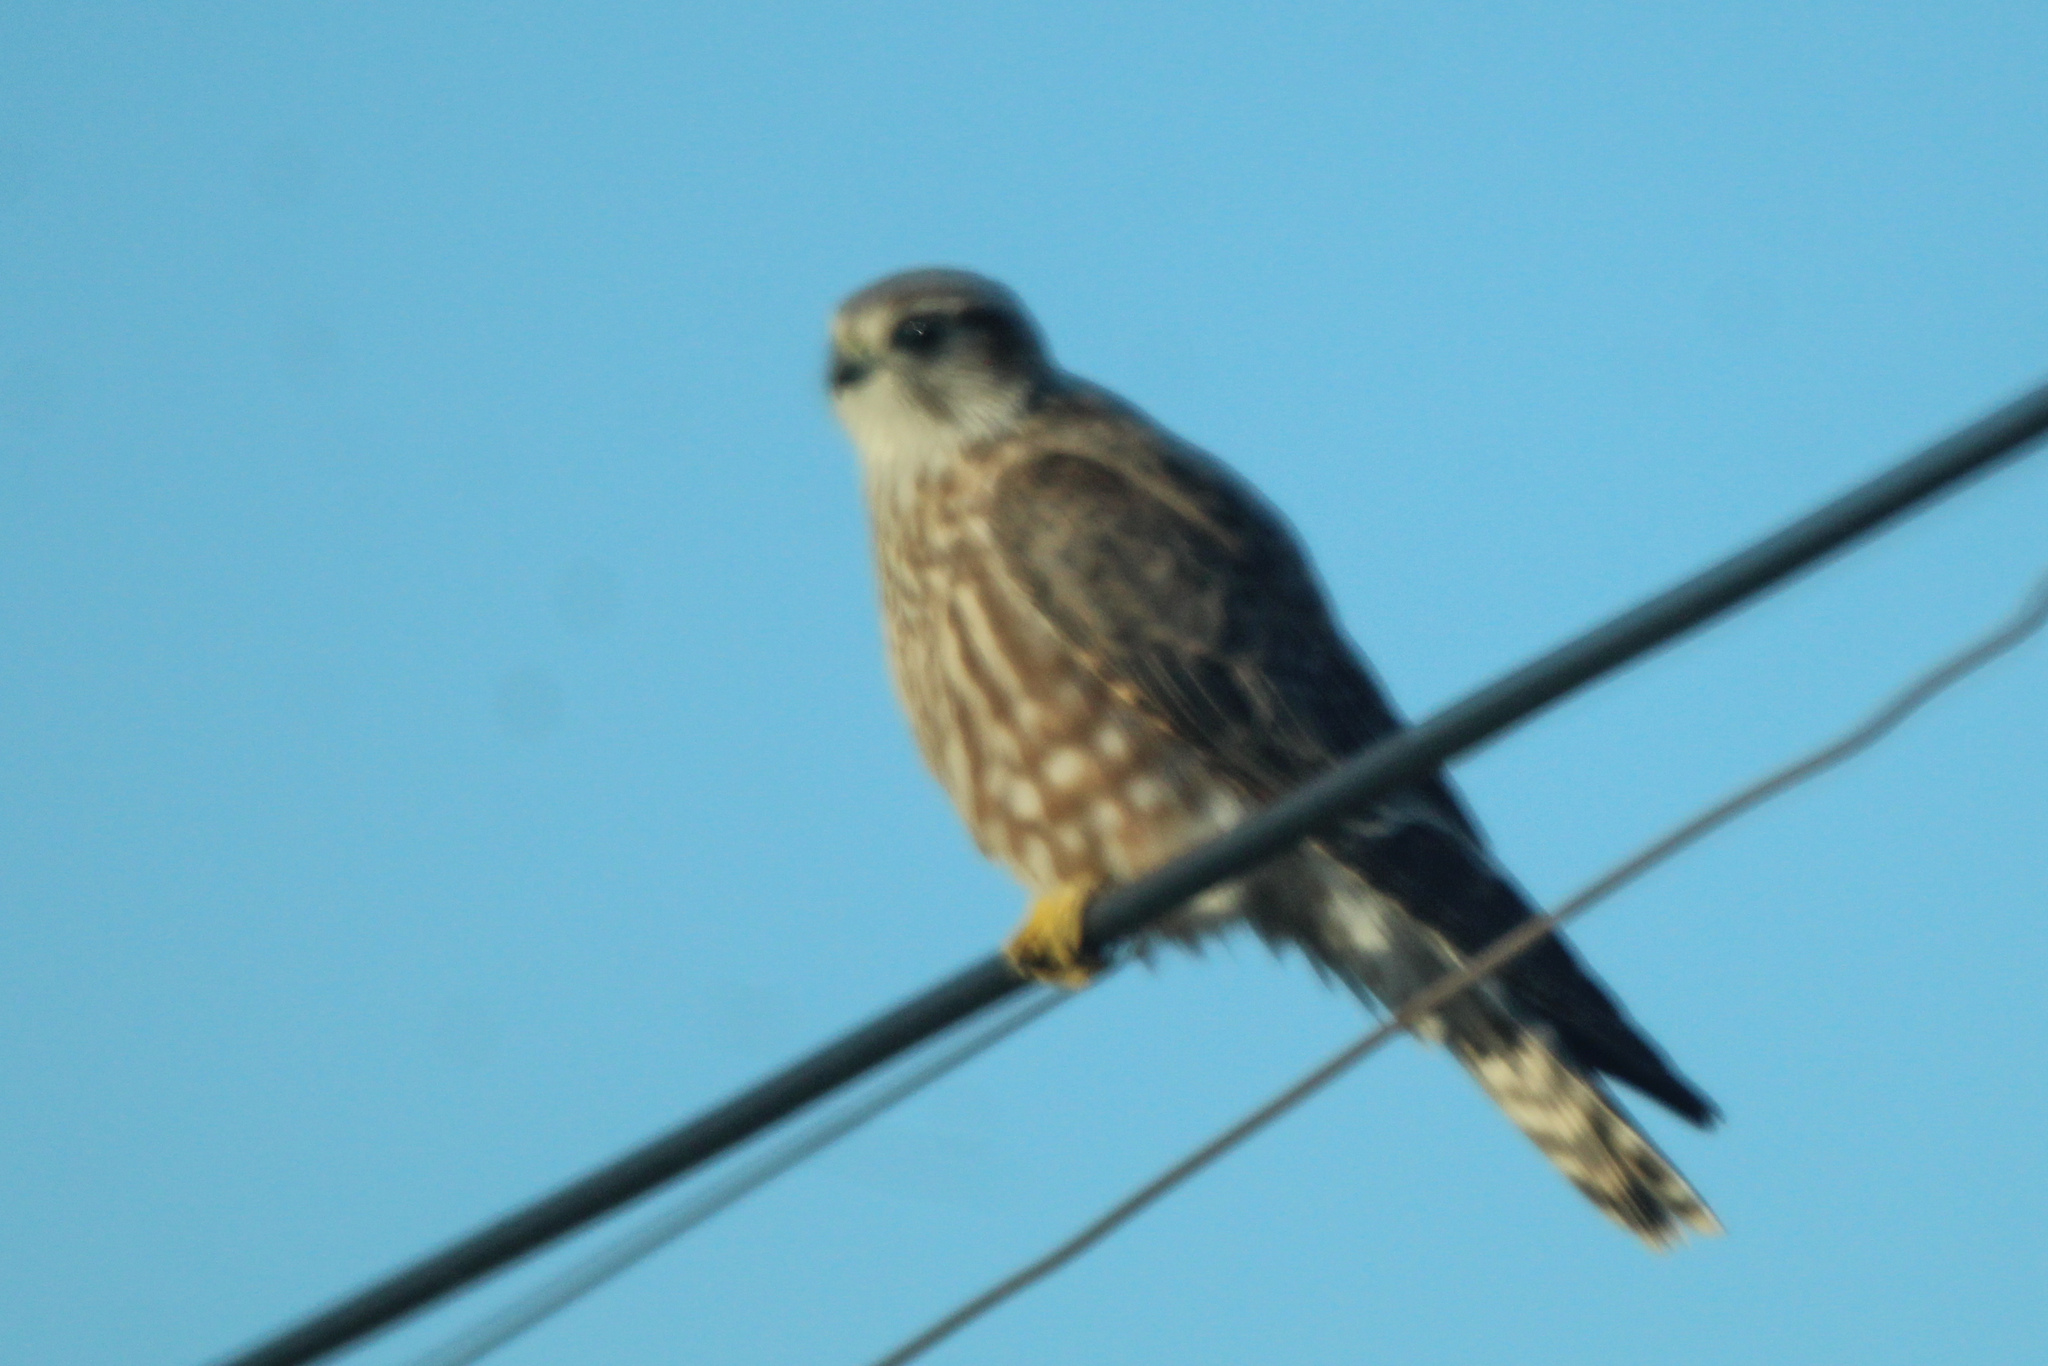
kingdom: Animalia
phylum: Chordata
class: Aves
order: Falconiformes
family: Falconidae
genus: Falco
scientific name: Falco columbarius
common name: Merlin
